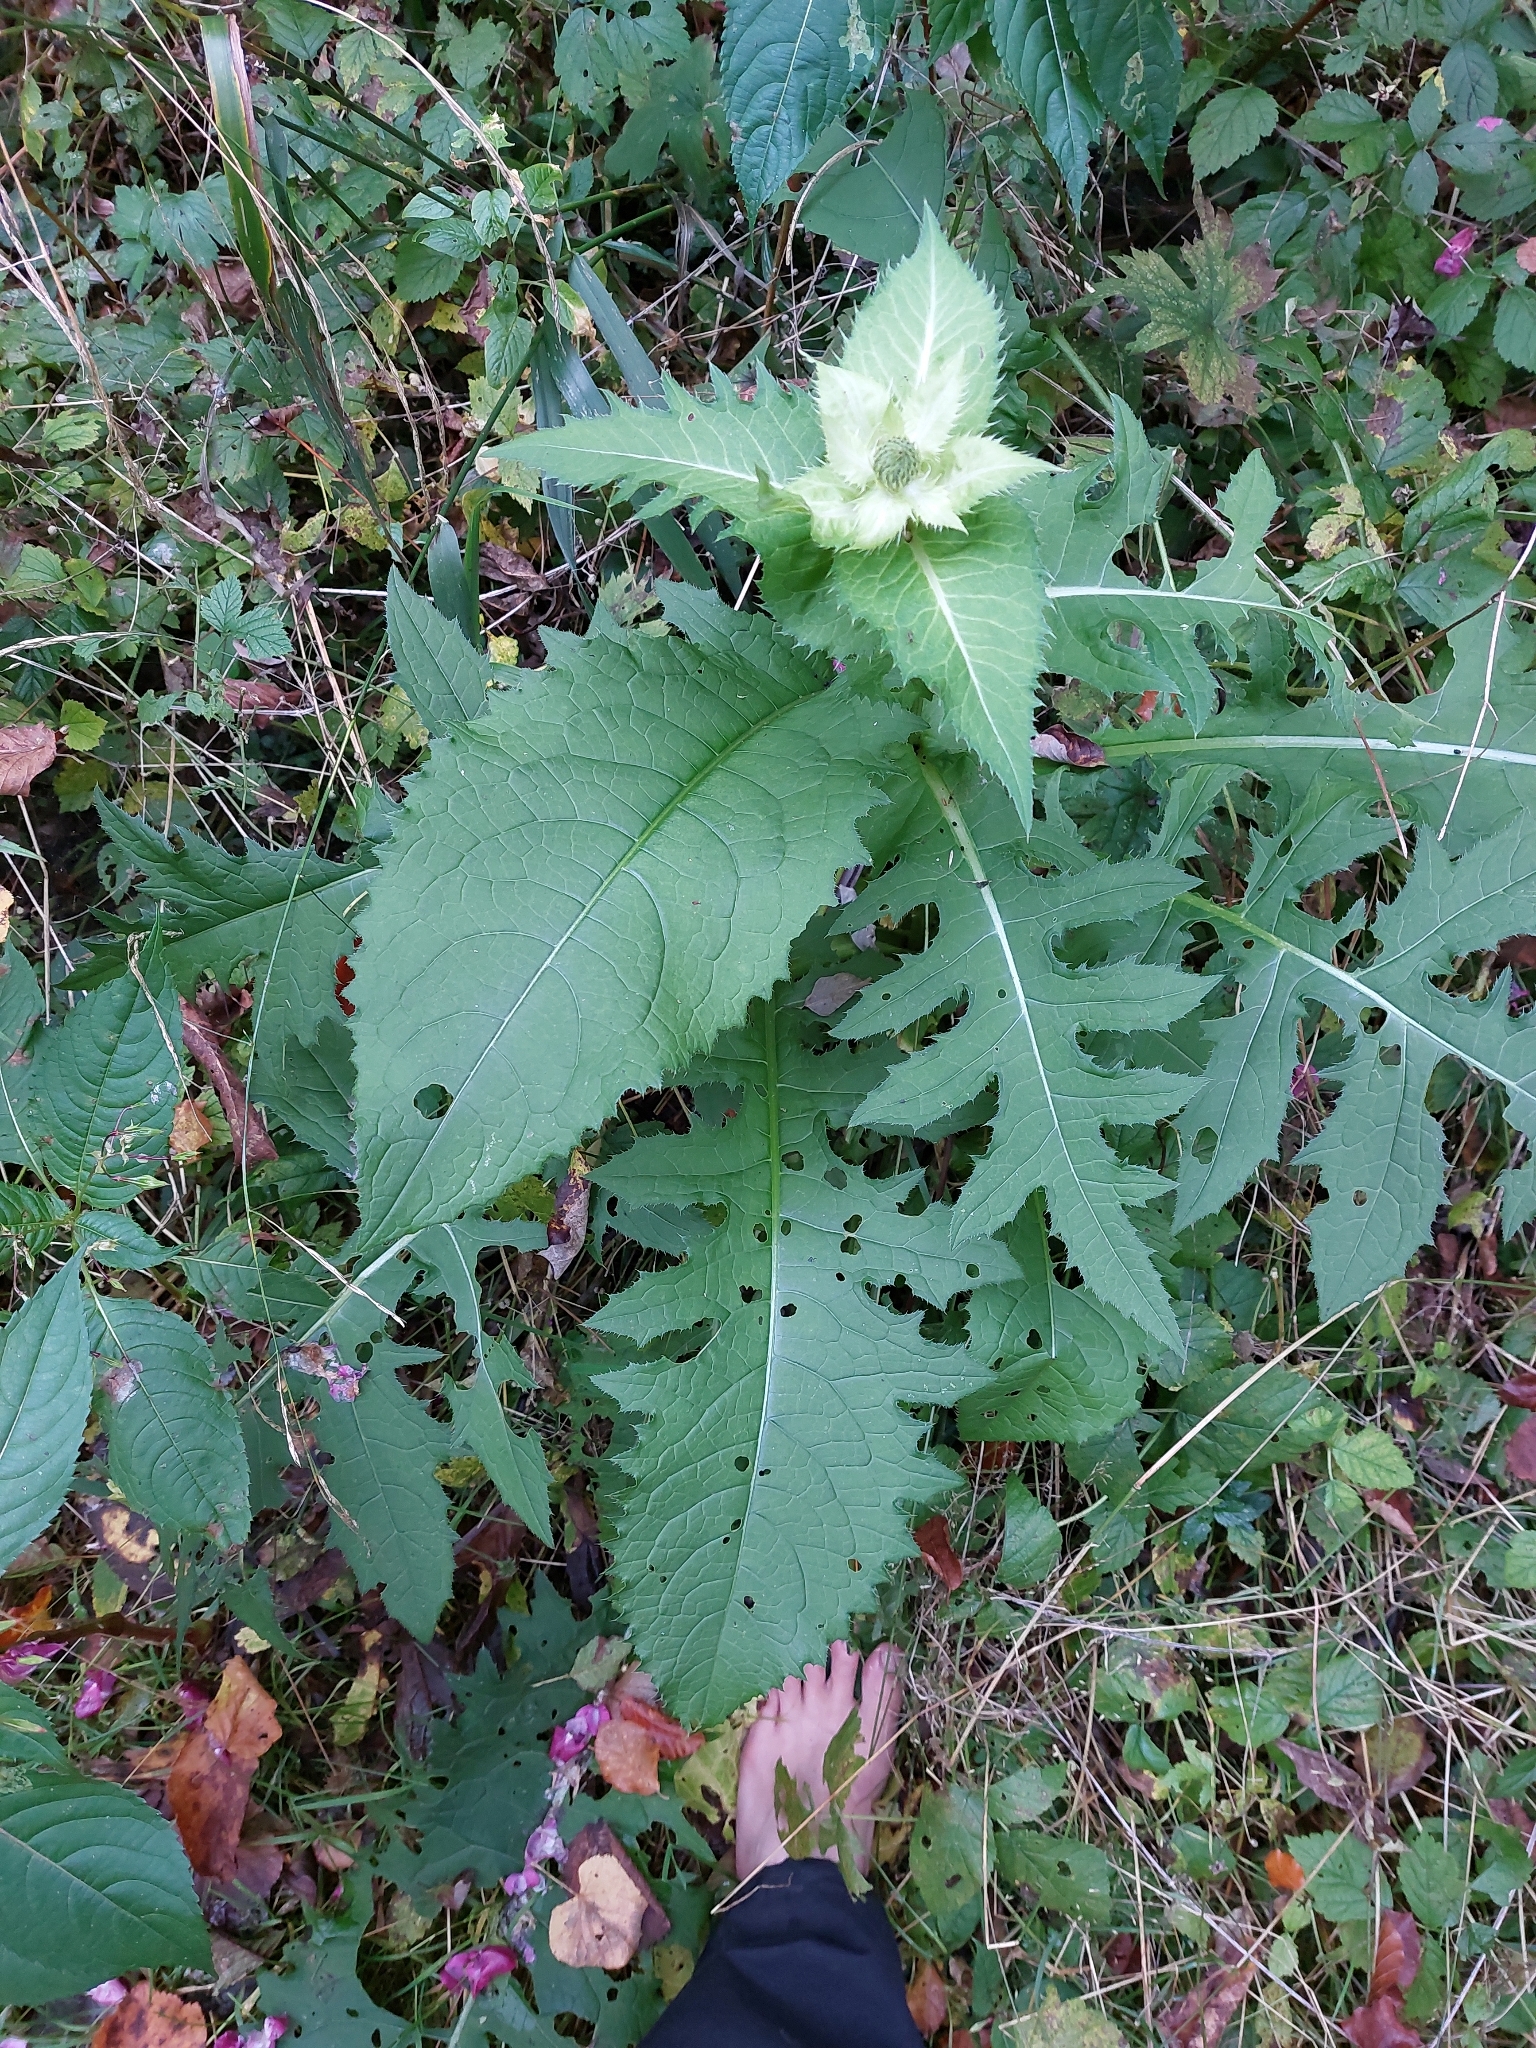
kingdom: Plantae
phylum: Tracheophyta
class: Magnoliopsida
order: Asterales
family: Asteraceae
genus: Cirsium
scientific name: Cirsium oleraceum
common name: Cabbage thistle
